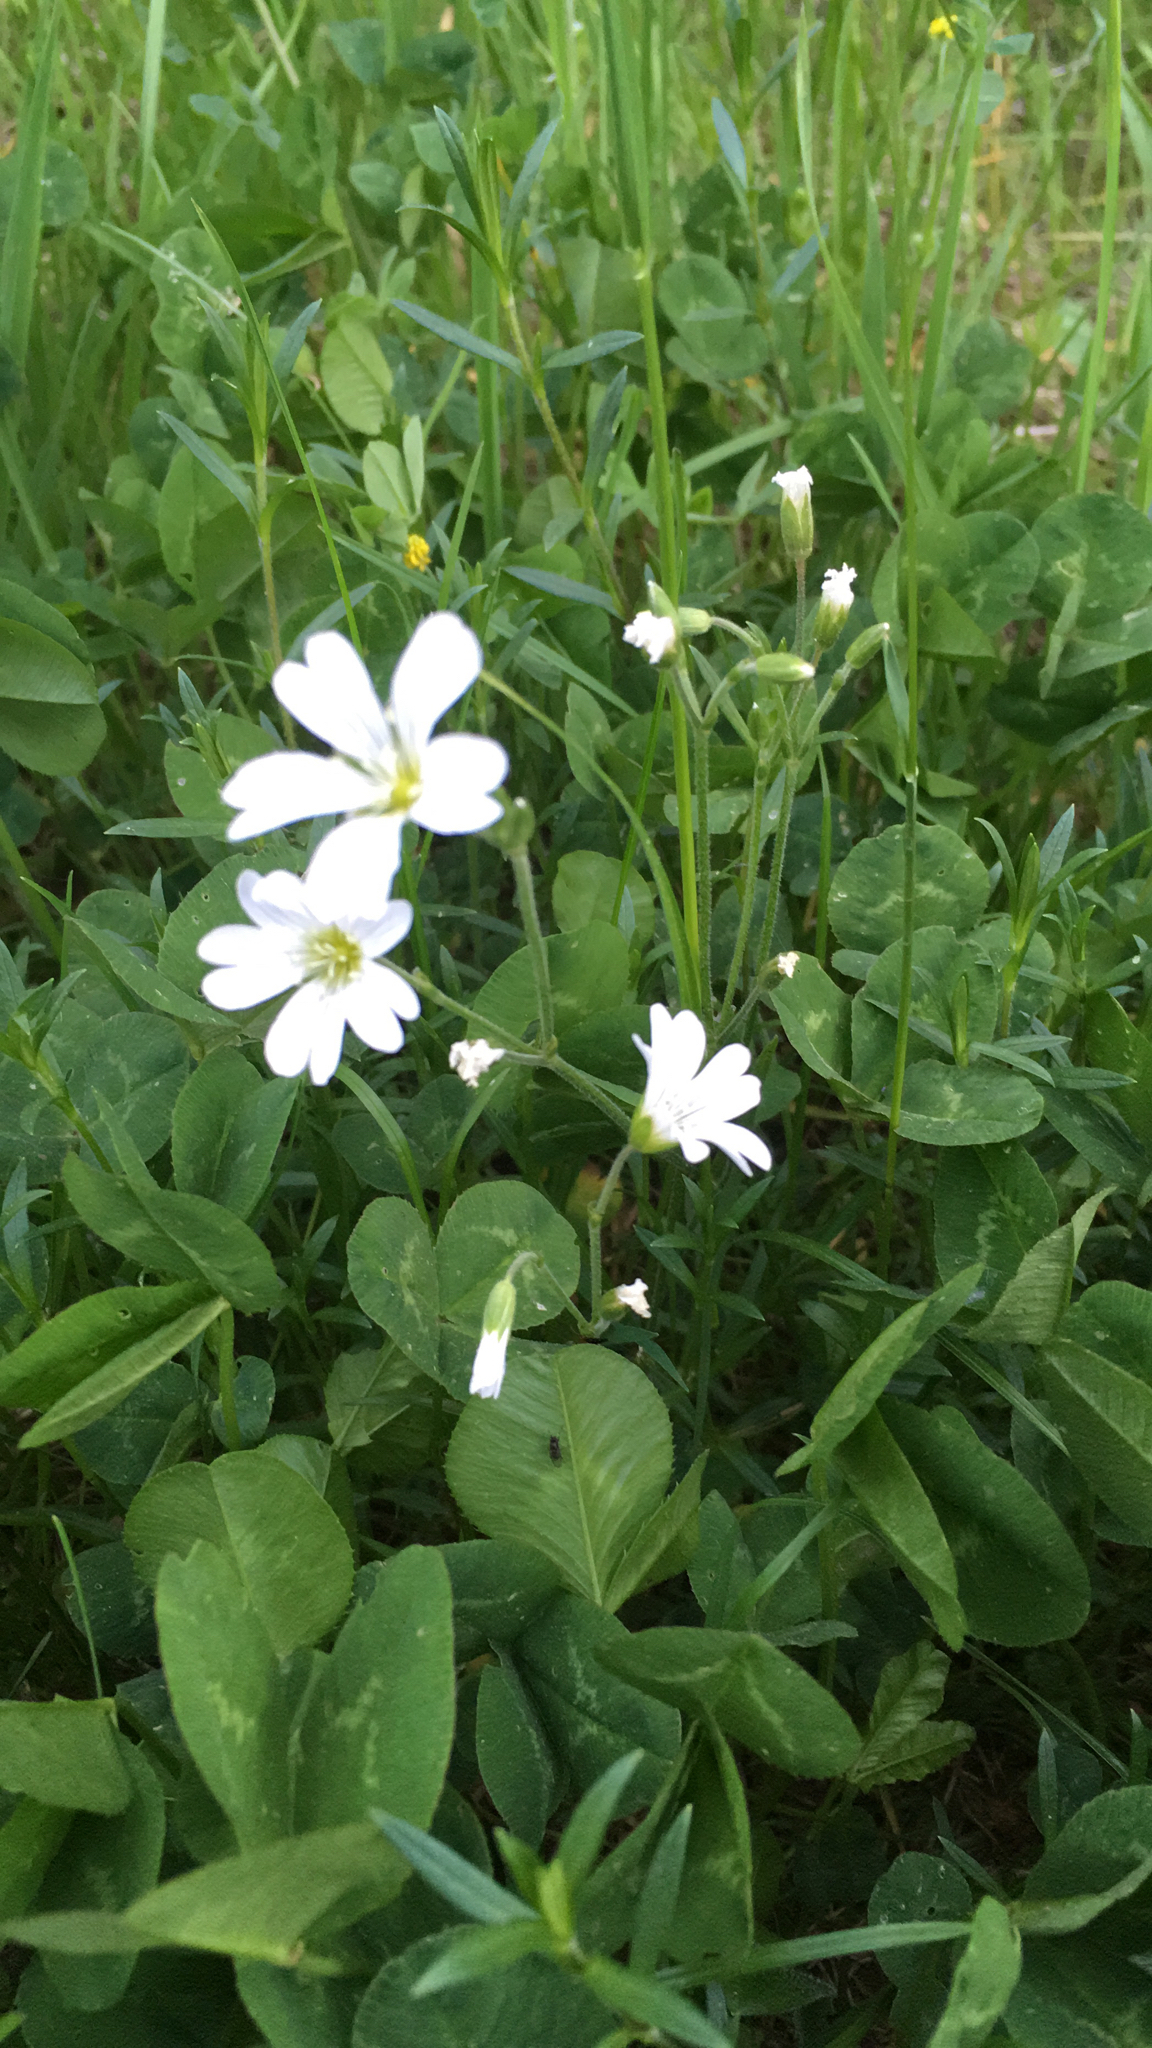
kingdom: Plantae
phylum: Tracheophyta
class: Magnoliopsida
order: Caryophyllales
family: Caryophyllaceae
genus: Cerastium
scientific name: Cerastium arvense
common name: Field mouse-ear
